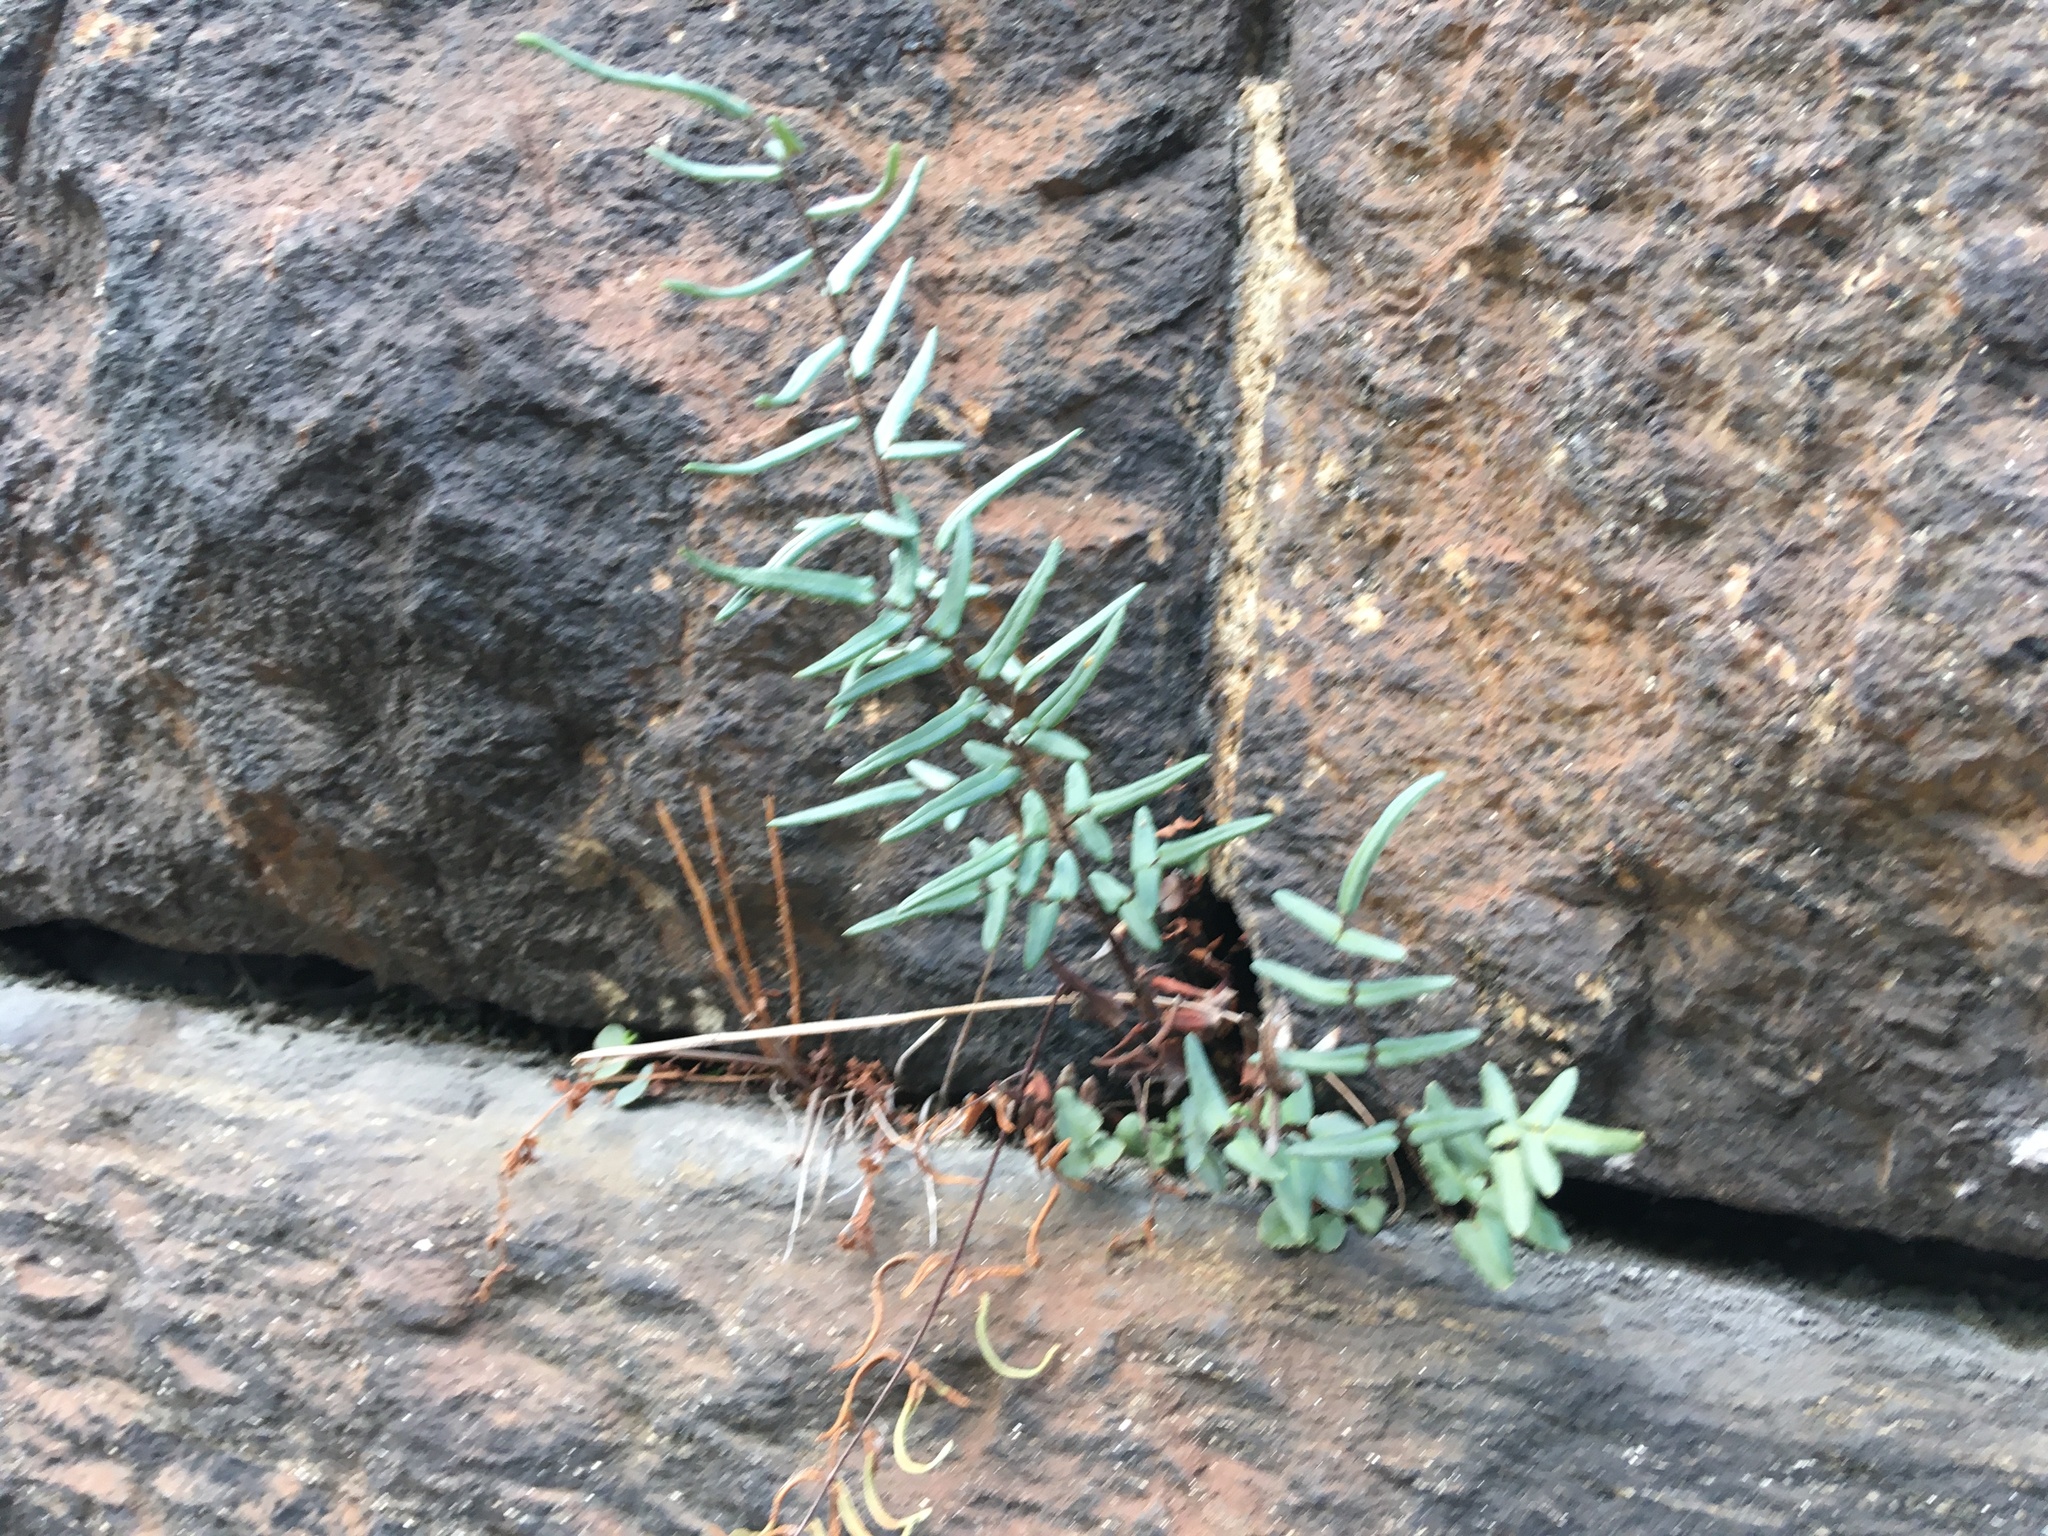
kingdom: Plantae
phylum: Tracheophyta
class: Polypodiopsida
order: Polypodiales
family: Pteridaceae
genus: Pellaea
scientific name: Pellaea atropurpurea
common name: Hairy cliffbrake
